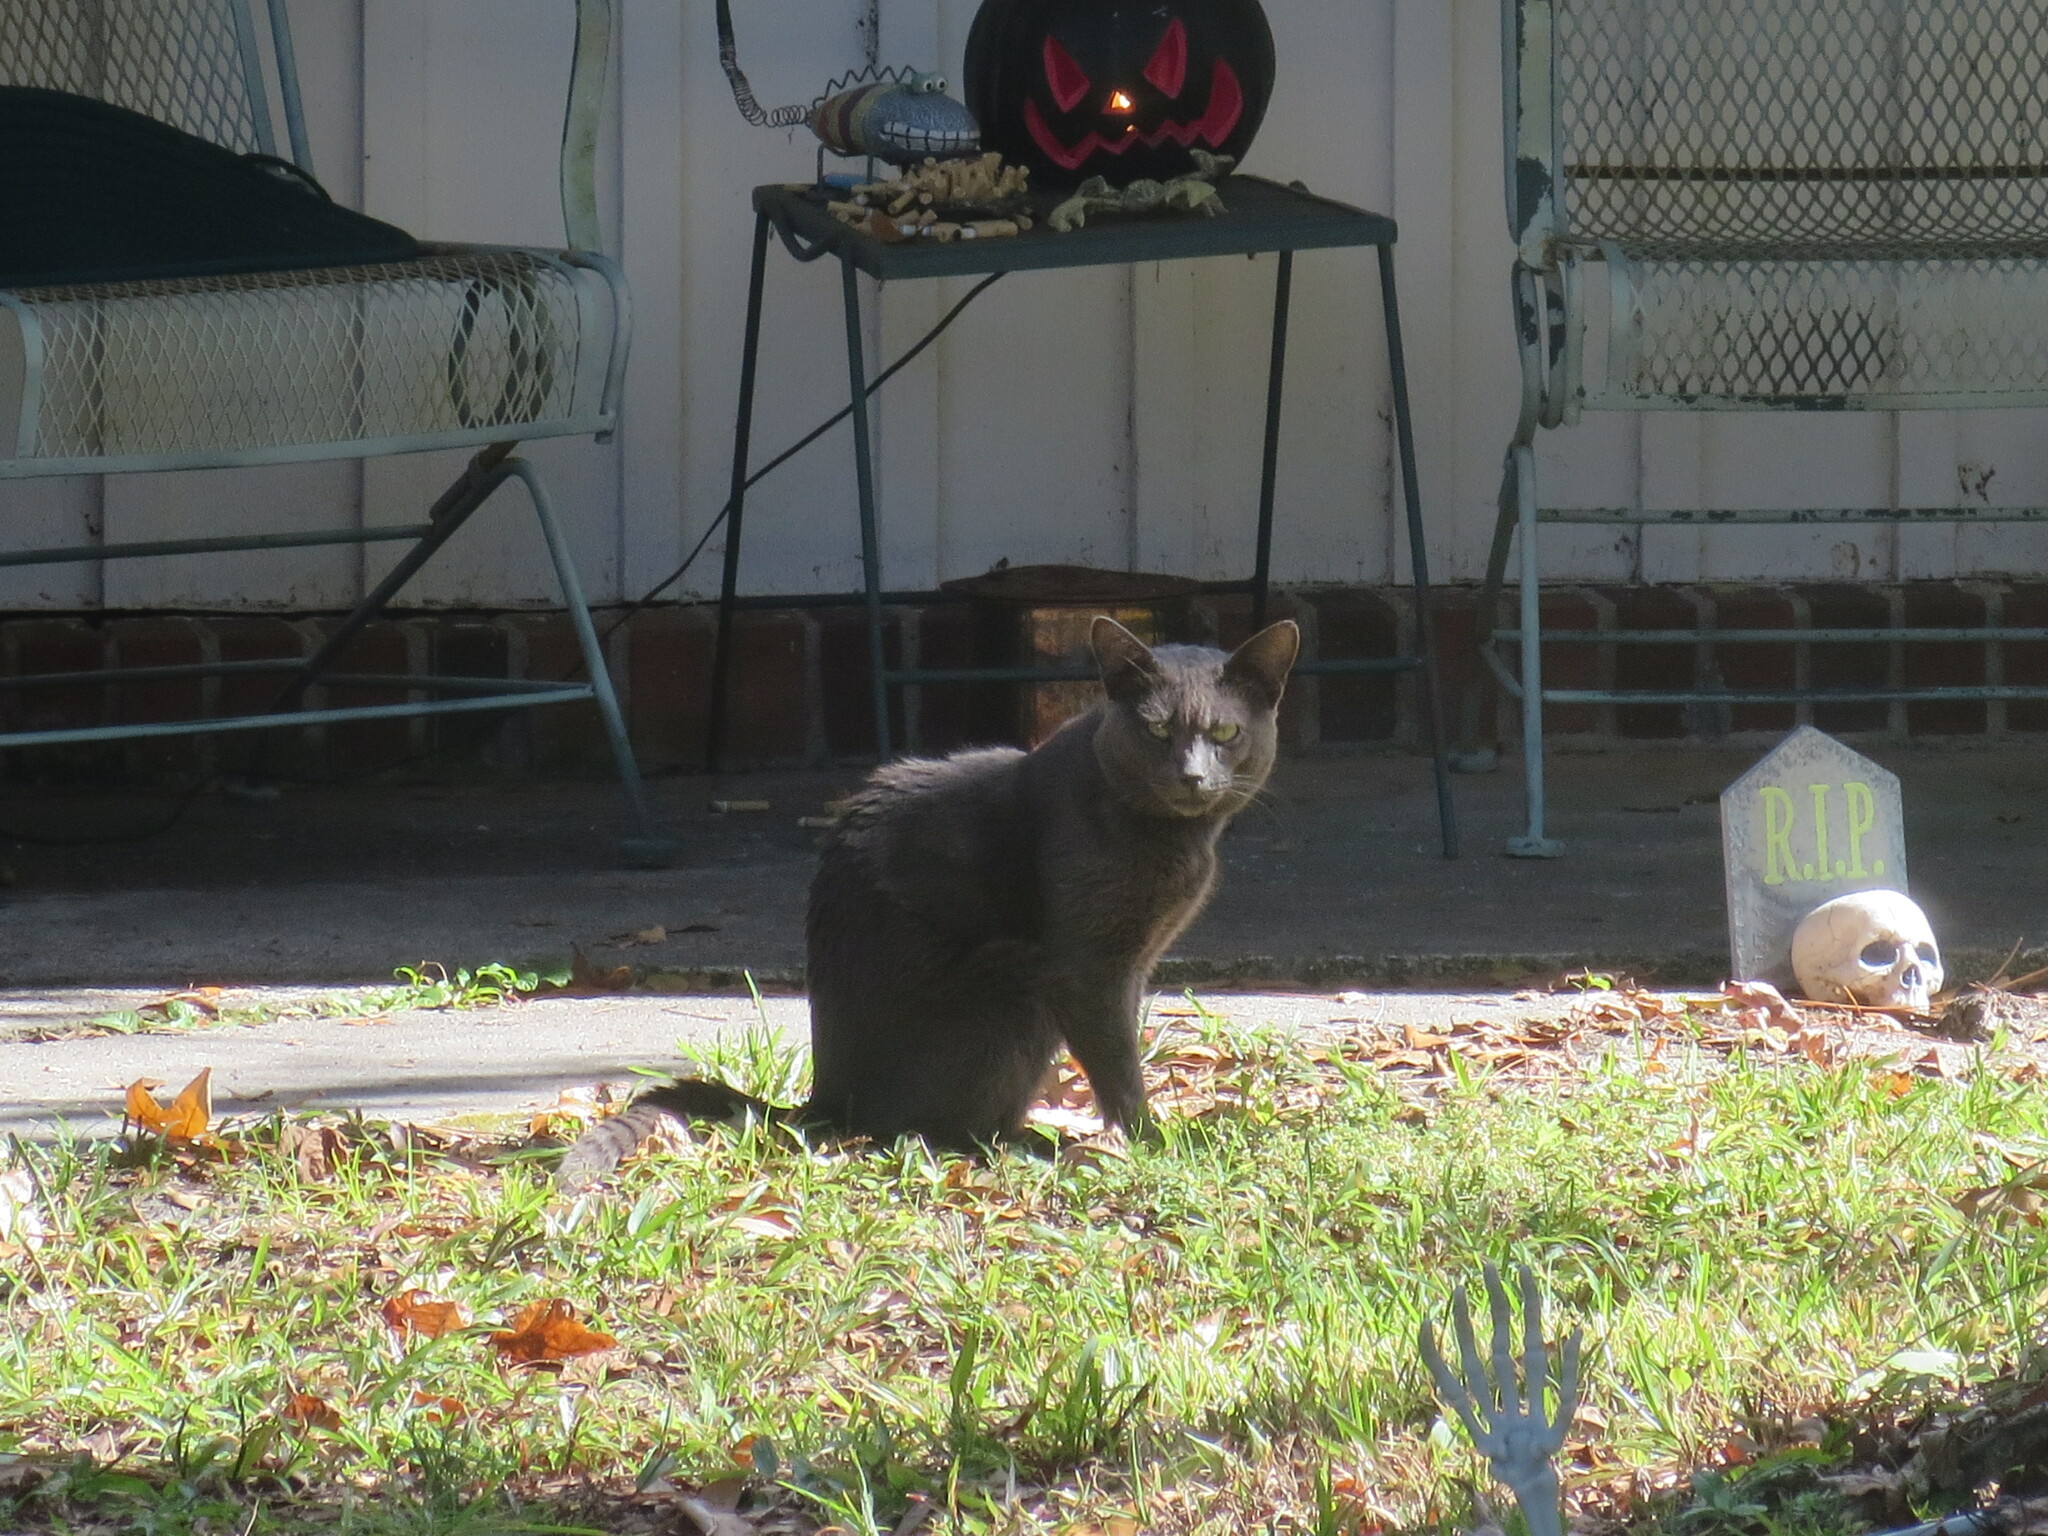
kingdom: Animalia
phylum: Chordata
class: Mammalia
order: Carnivora
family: Felidae
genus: Felis
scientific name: Felis catus
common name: Domestic cat
